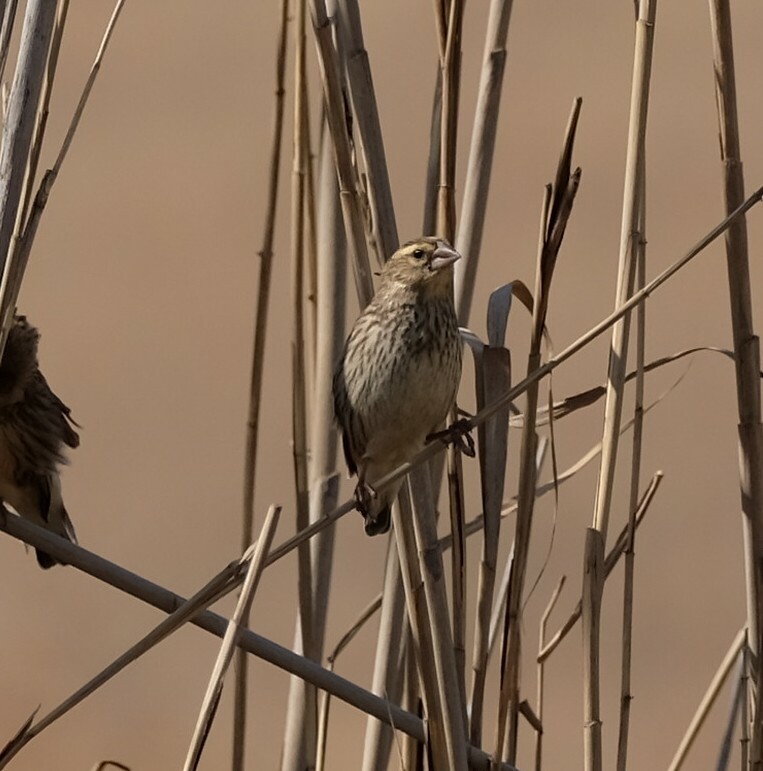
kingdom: Animalia
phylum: Chordata
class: Aves
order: Passeriformes
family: Ploceidae
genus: Euplectes
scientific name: Euplectes orix
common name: Southern red bishop
